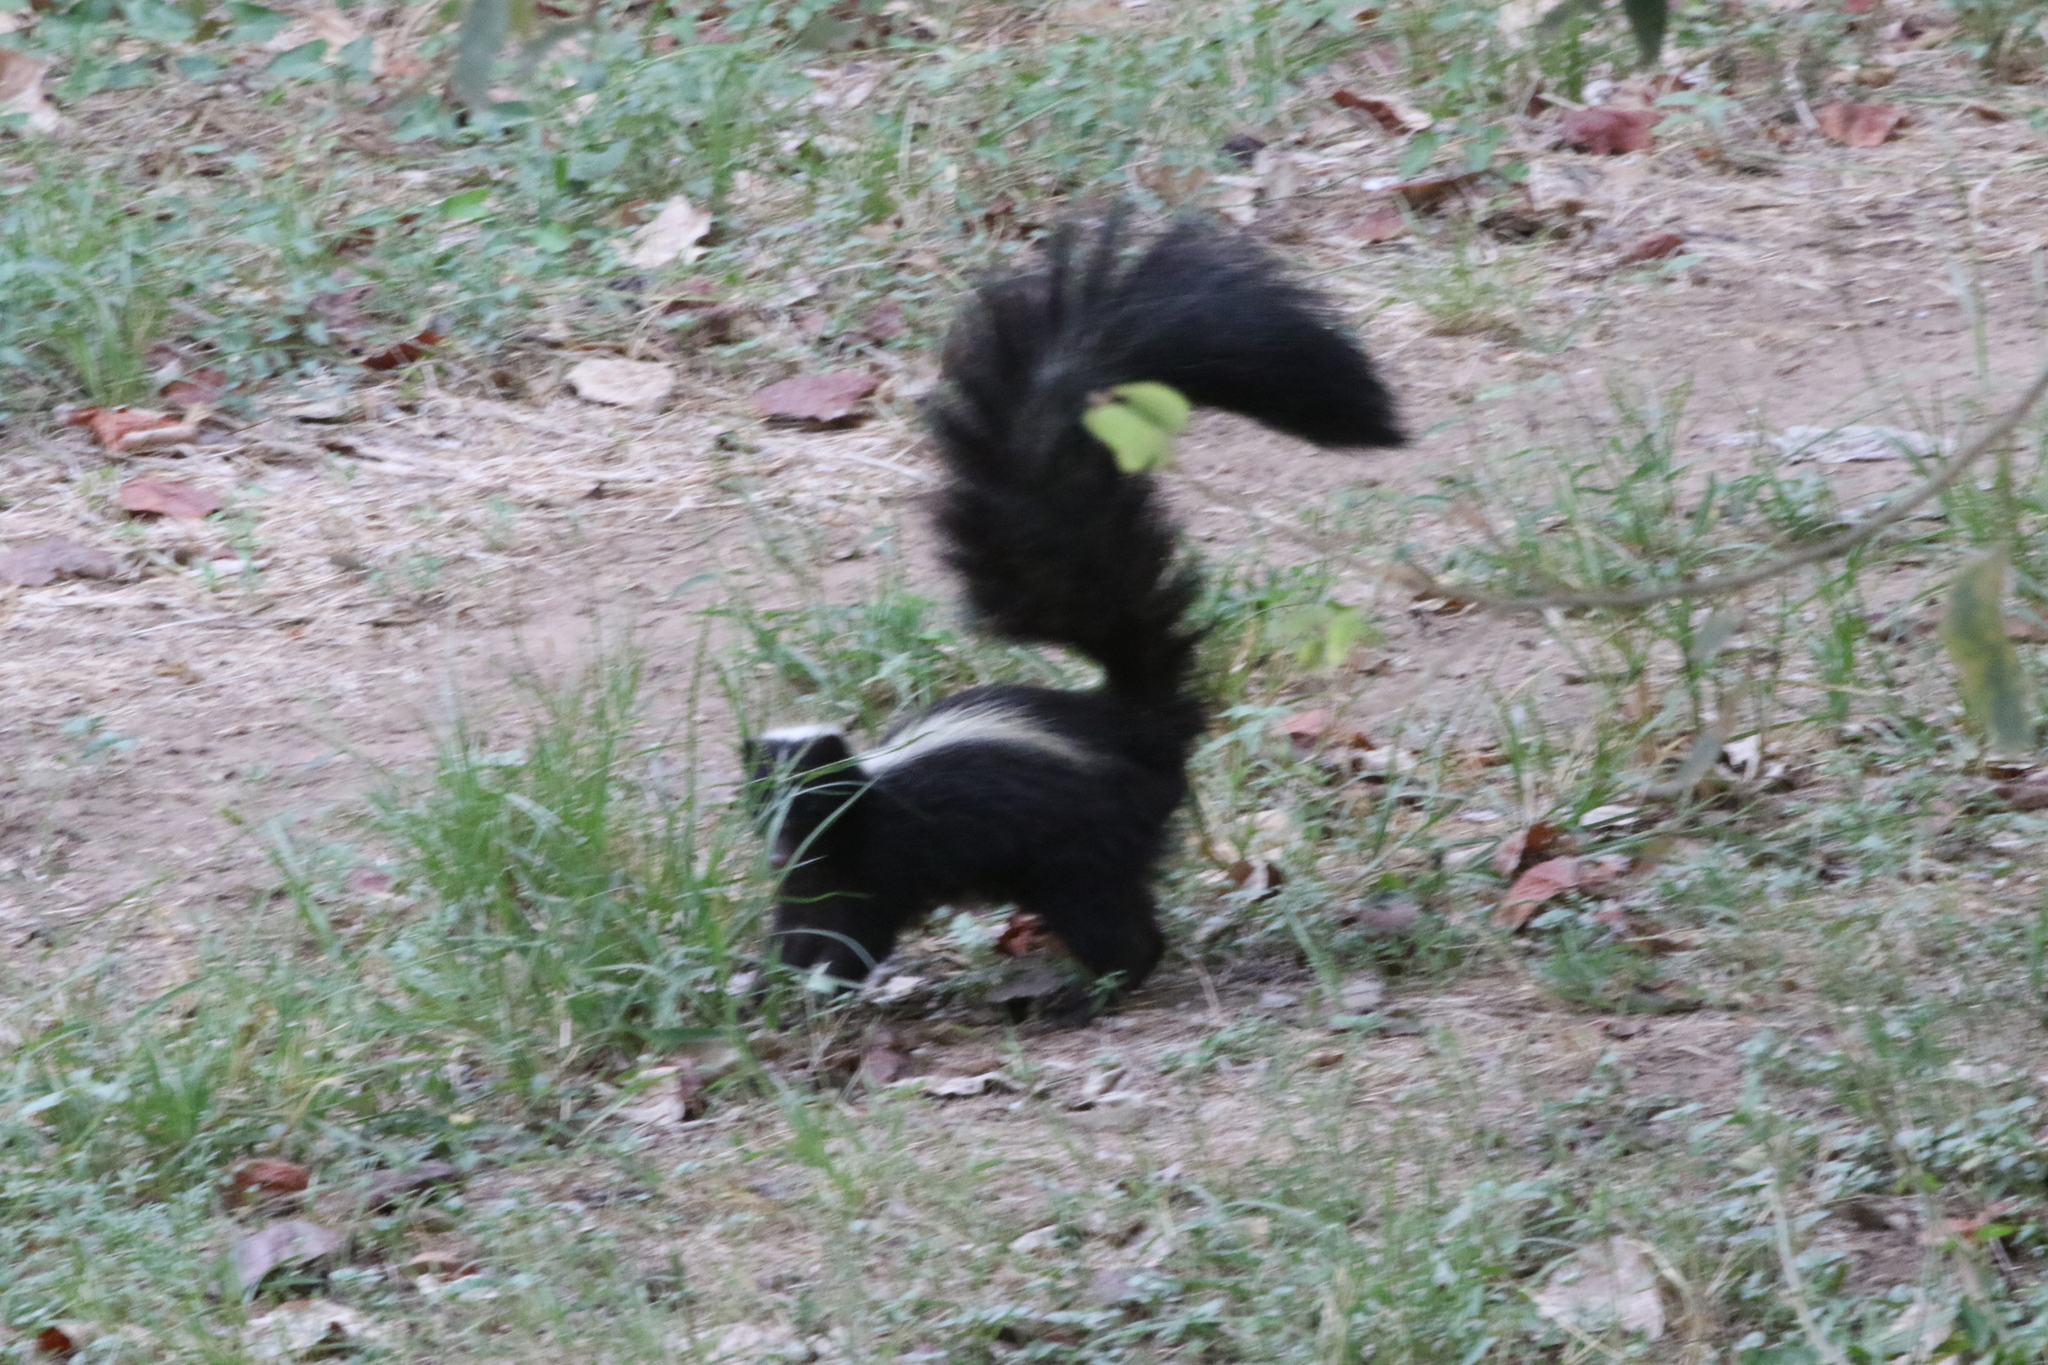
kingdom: Animalia
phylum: Chordata
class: Mammalia
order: Carnivora
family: Mephitidae
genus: Mephitis
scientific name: Mephitis mephitis
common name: Striped skunk
